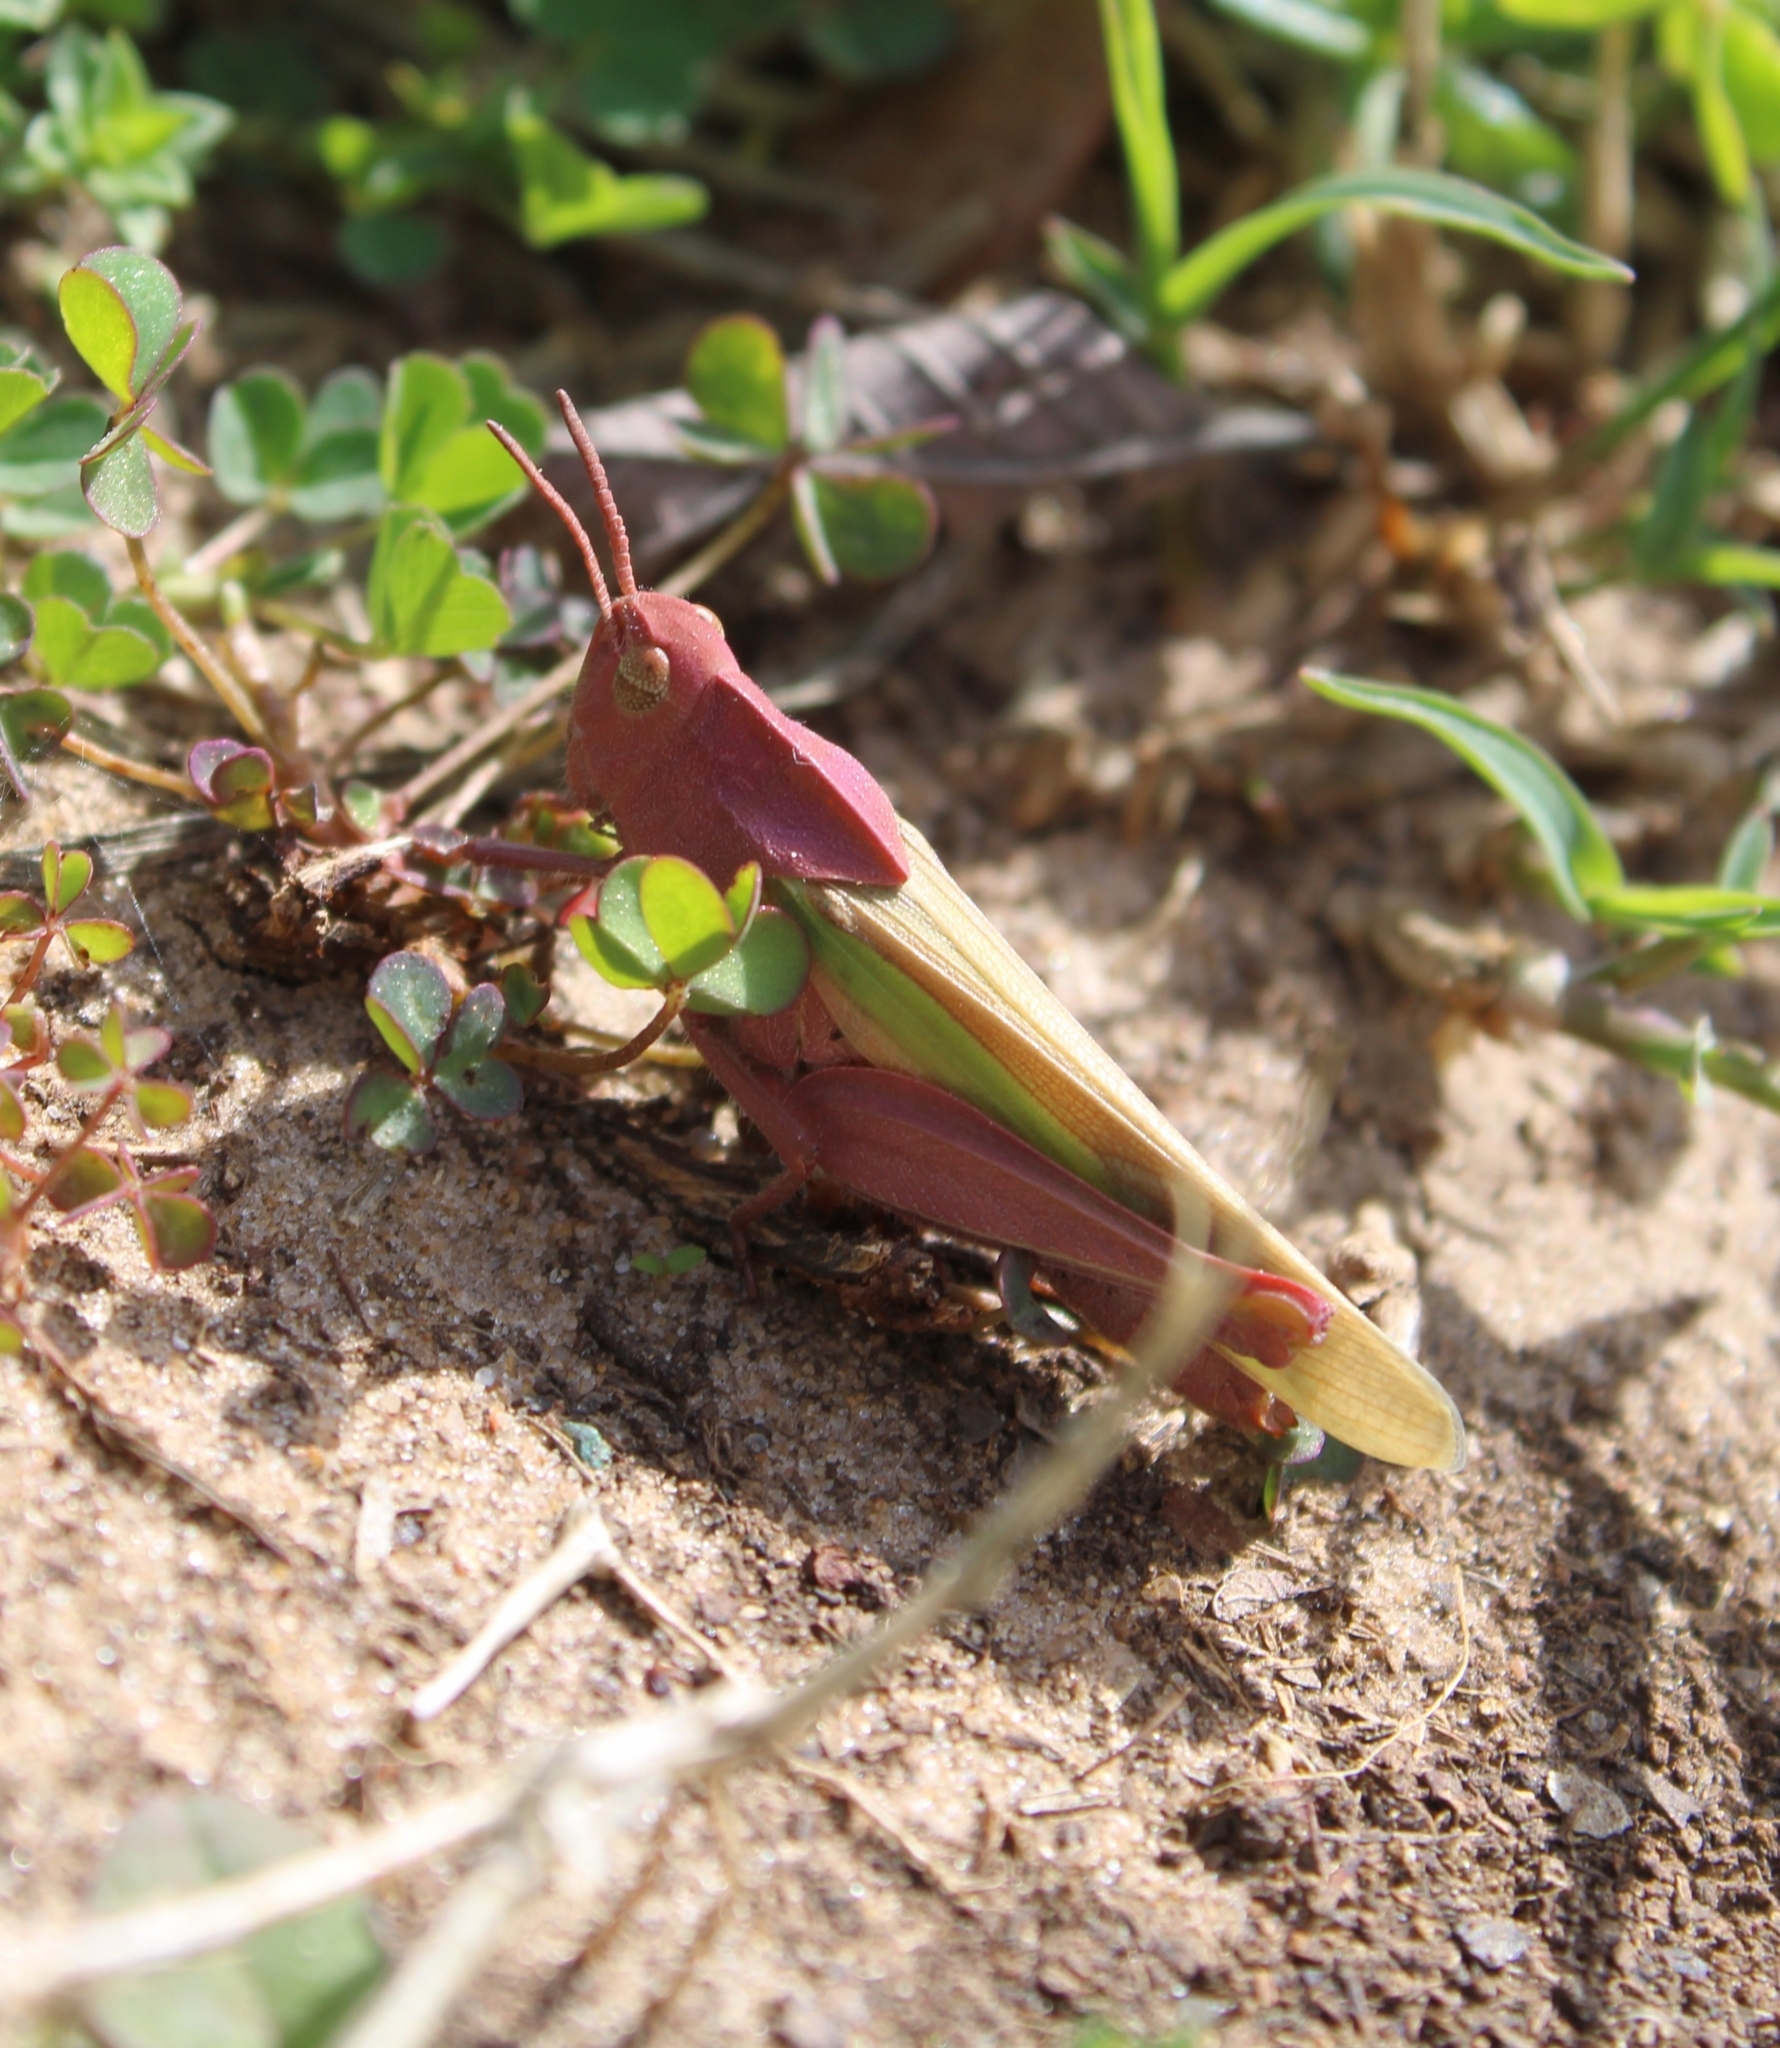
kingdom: Animalia
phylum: Arthropoda
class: Insecta
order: Orthoptera
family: Acrididae
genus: Chortophaga
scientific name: Chortophaga viridifasciata
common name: Green-striped grasshopper
